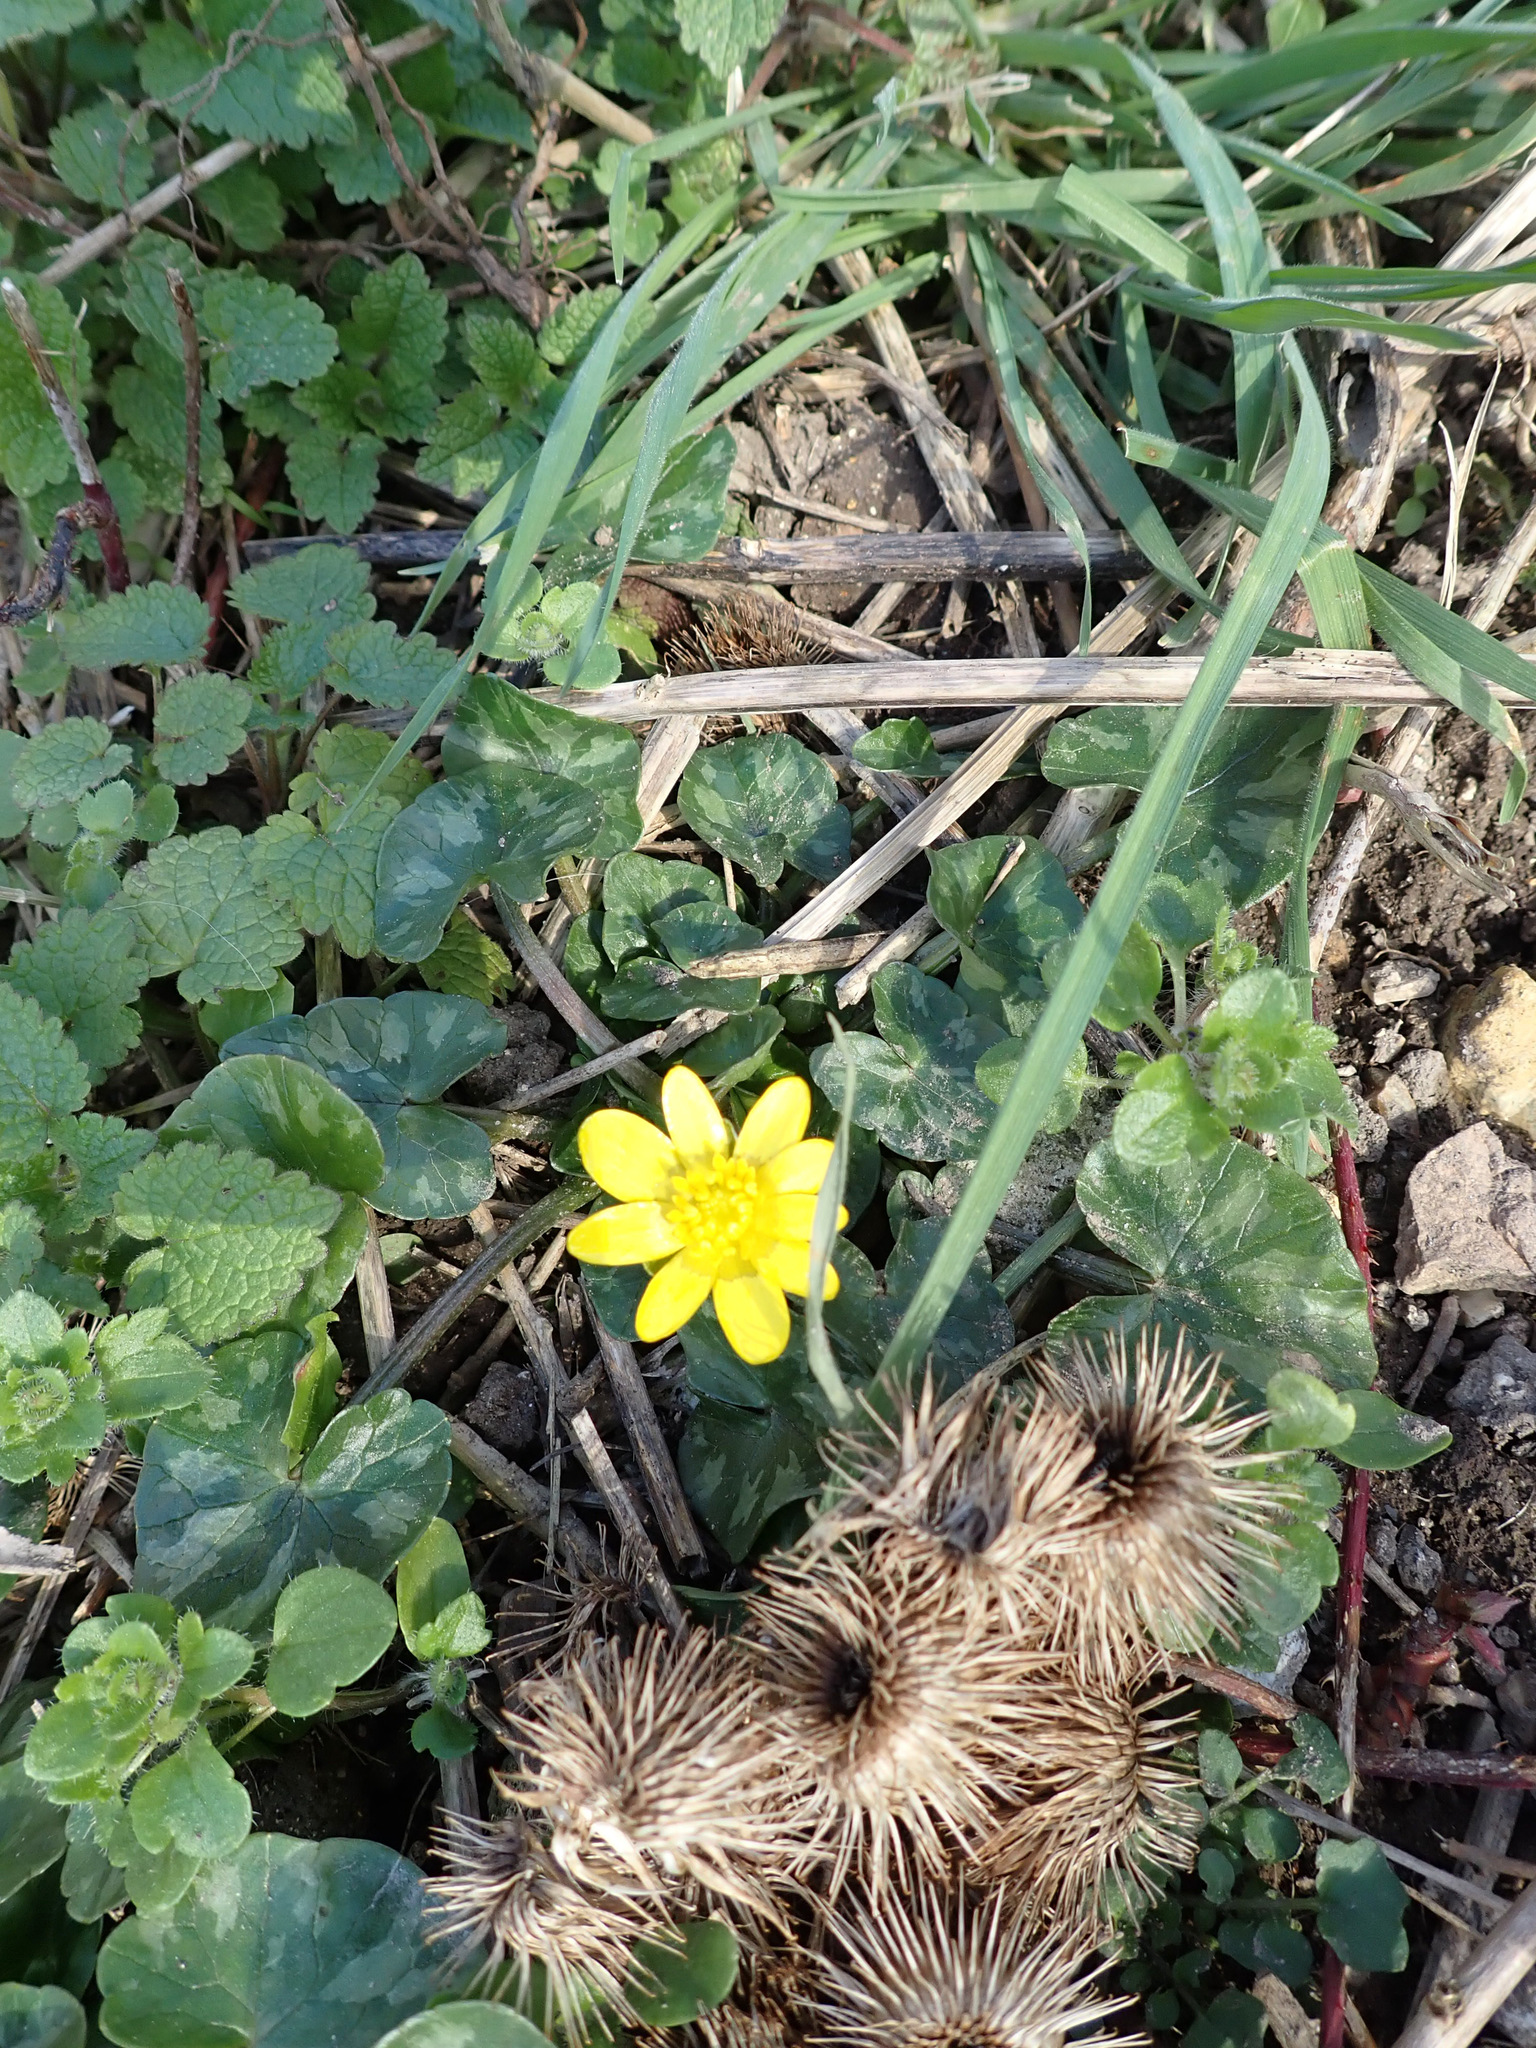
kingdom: Plantae
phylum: Tracheophyta
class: Magnoliopsida
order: Ranunculales
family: Ranunculaceae
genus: Ficaria
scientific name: Ficaria verna
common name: Lesser celandine
